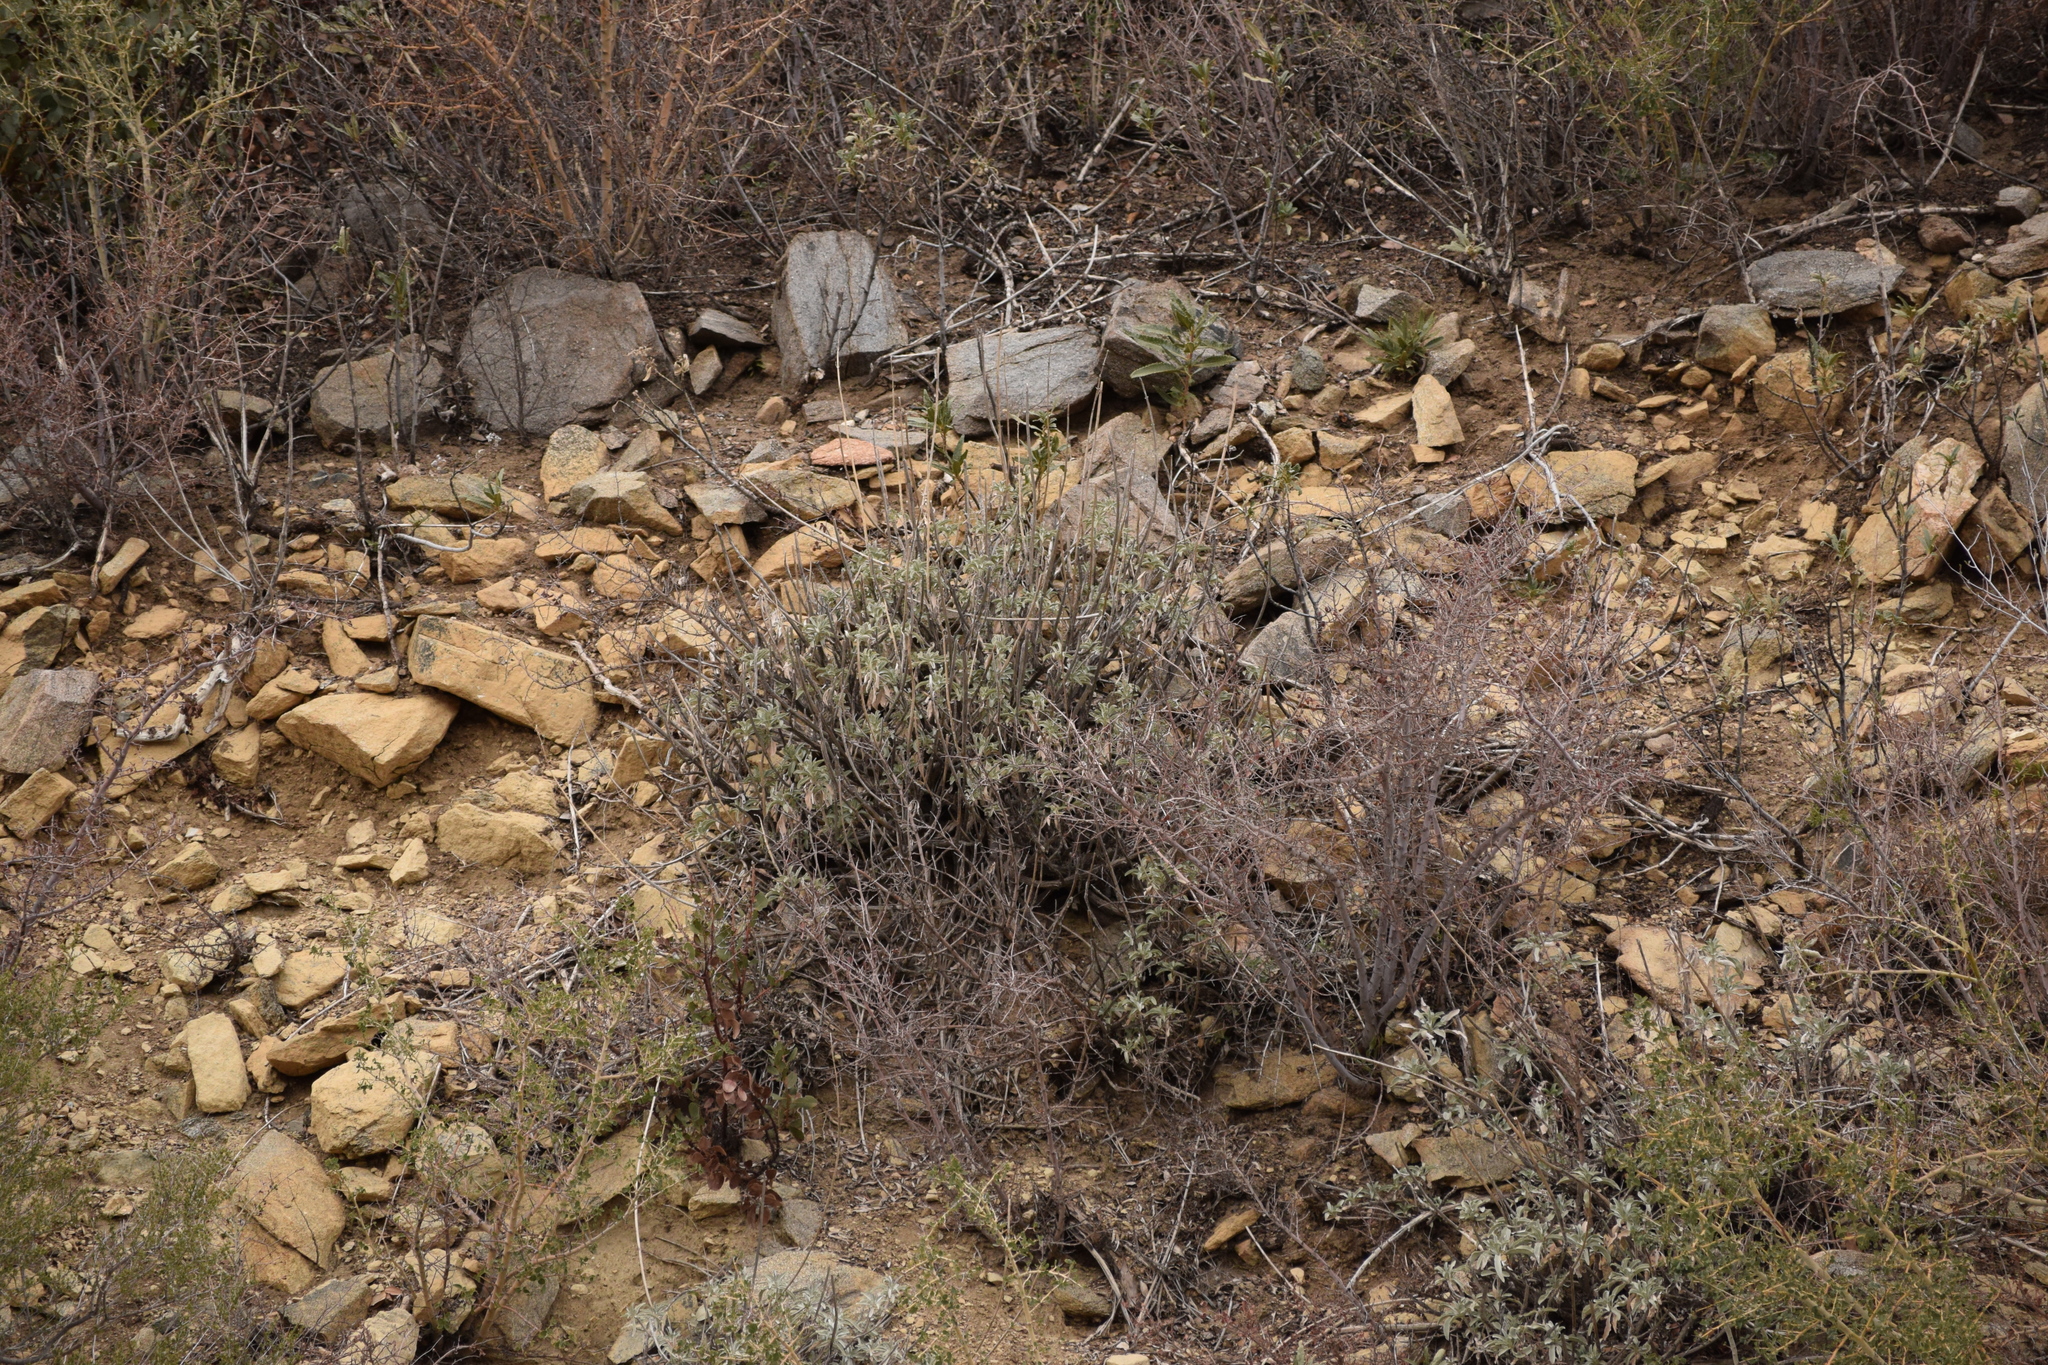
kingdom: Plantae
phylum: Tracheophyta
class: Magnoliopsida
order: Lamiales
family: Lamiaceae
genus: Salvia
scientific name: Salvia apiana
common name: White sage
